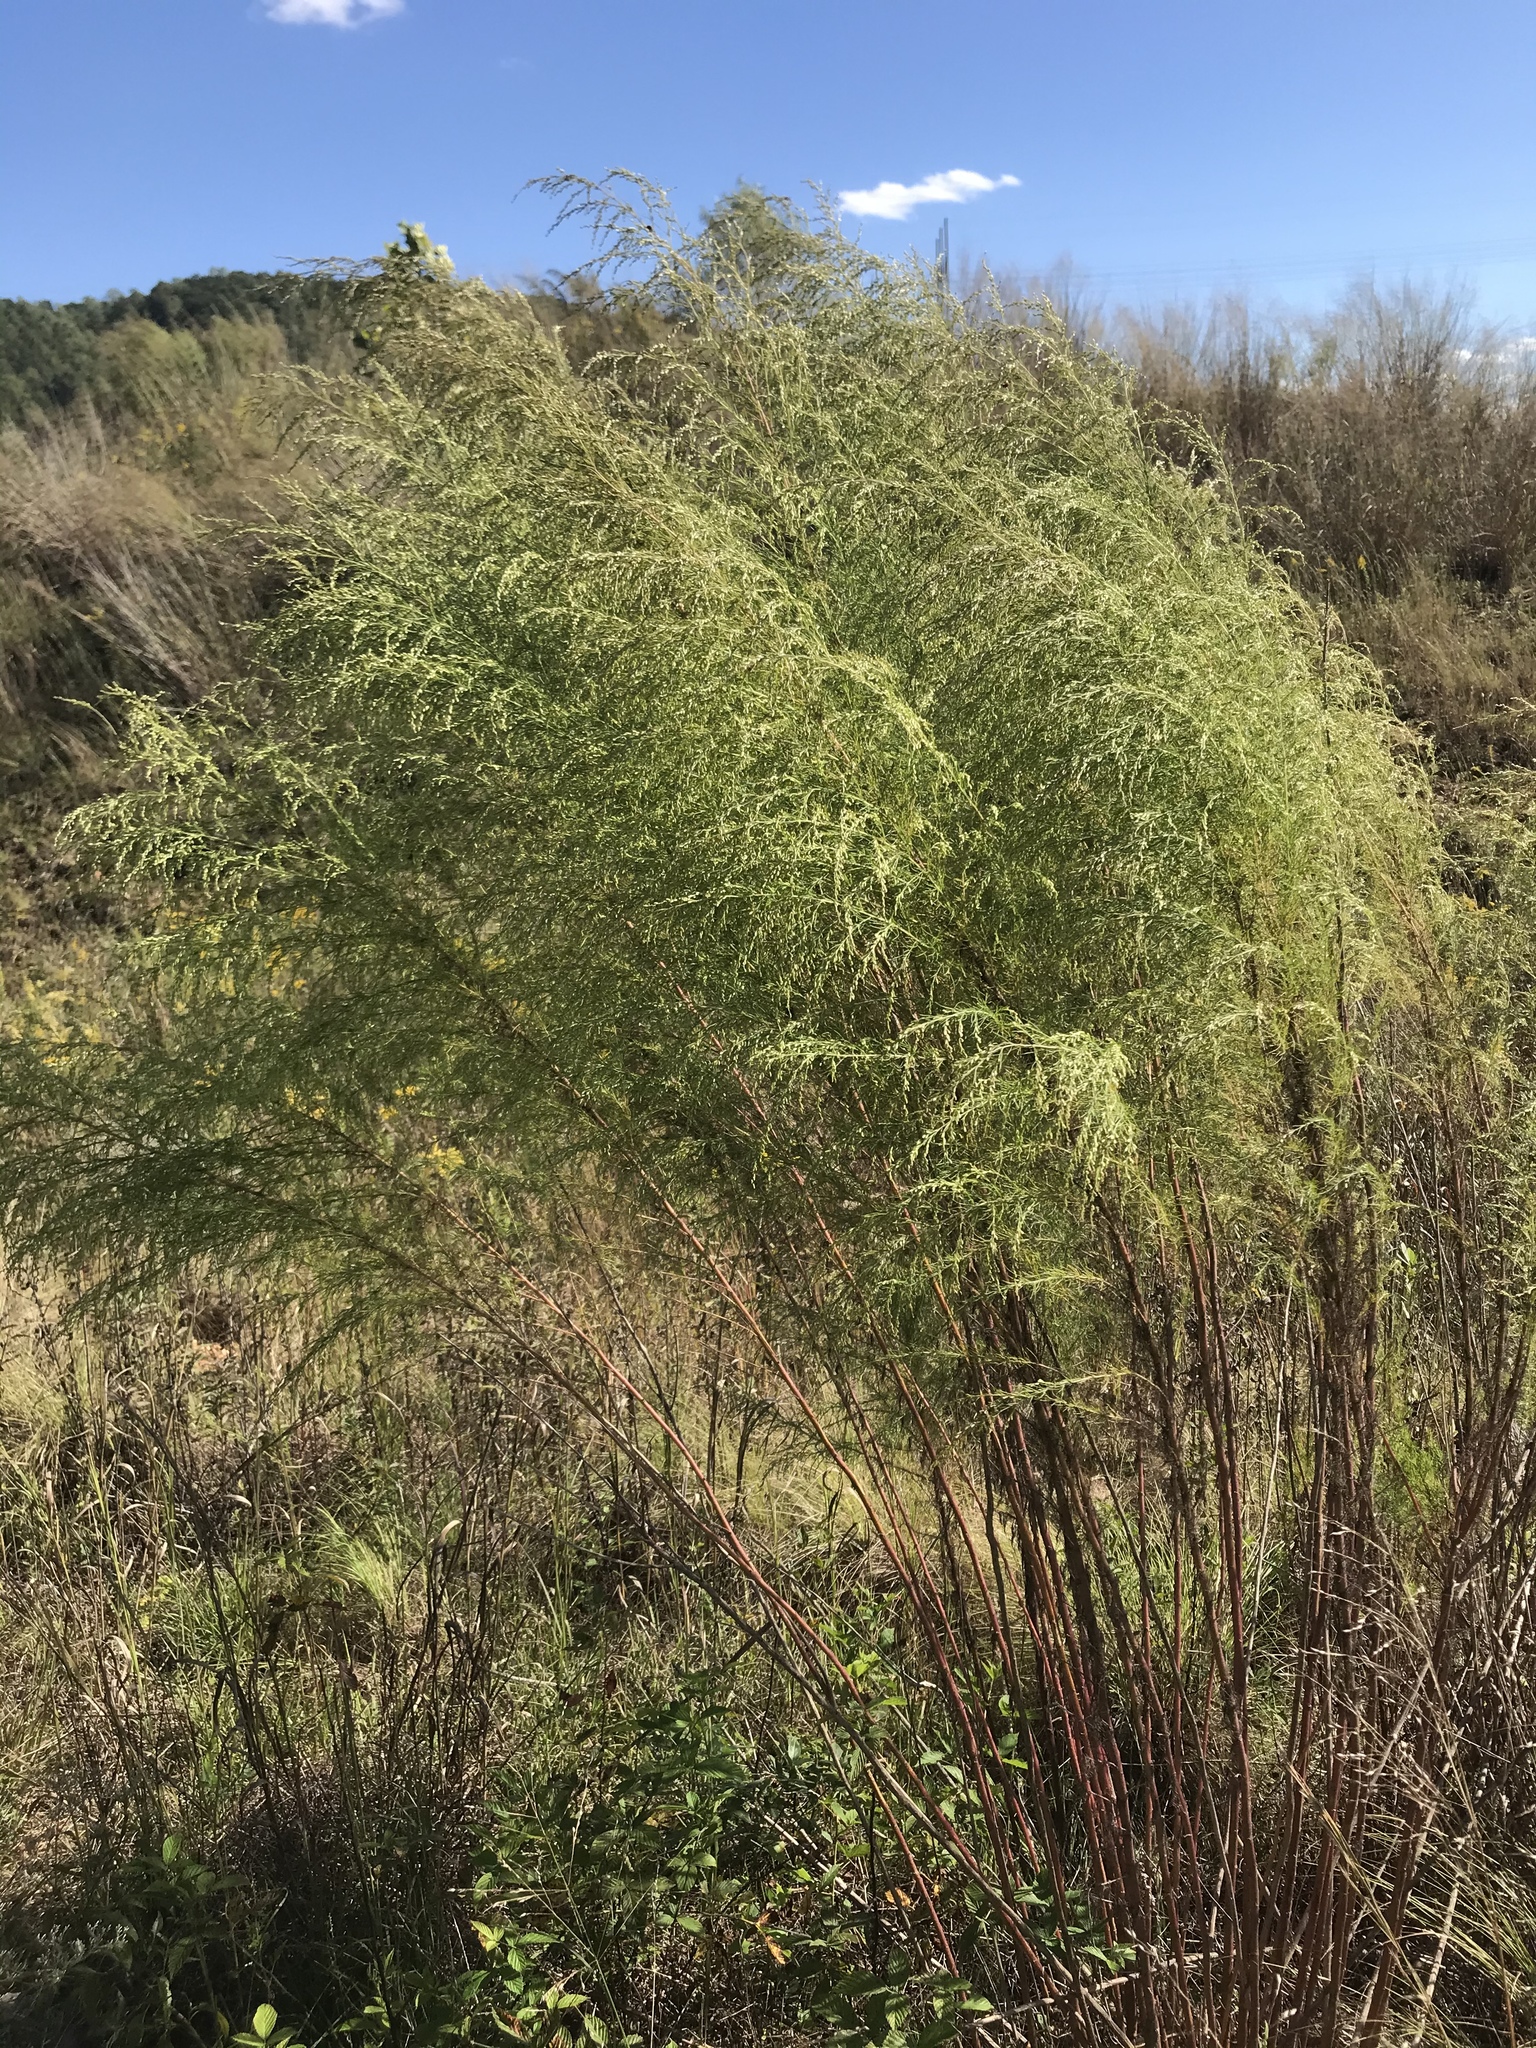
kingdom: Plantae
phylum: Tracheophyta
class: Magnoliopsida
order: Asterales
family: Asteraceae
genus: Eupatorium
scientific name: Eupatorium capillifolium
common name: Dog-fennel
